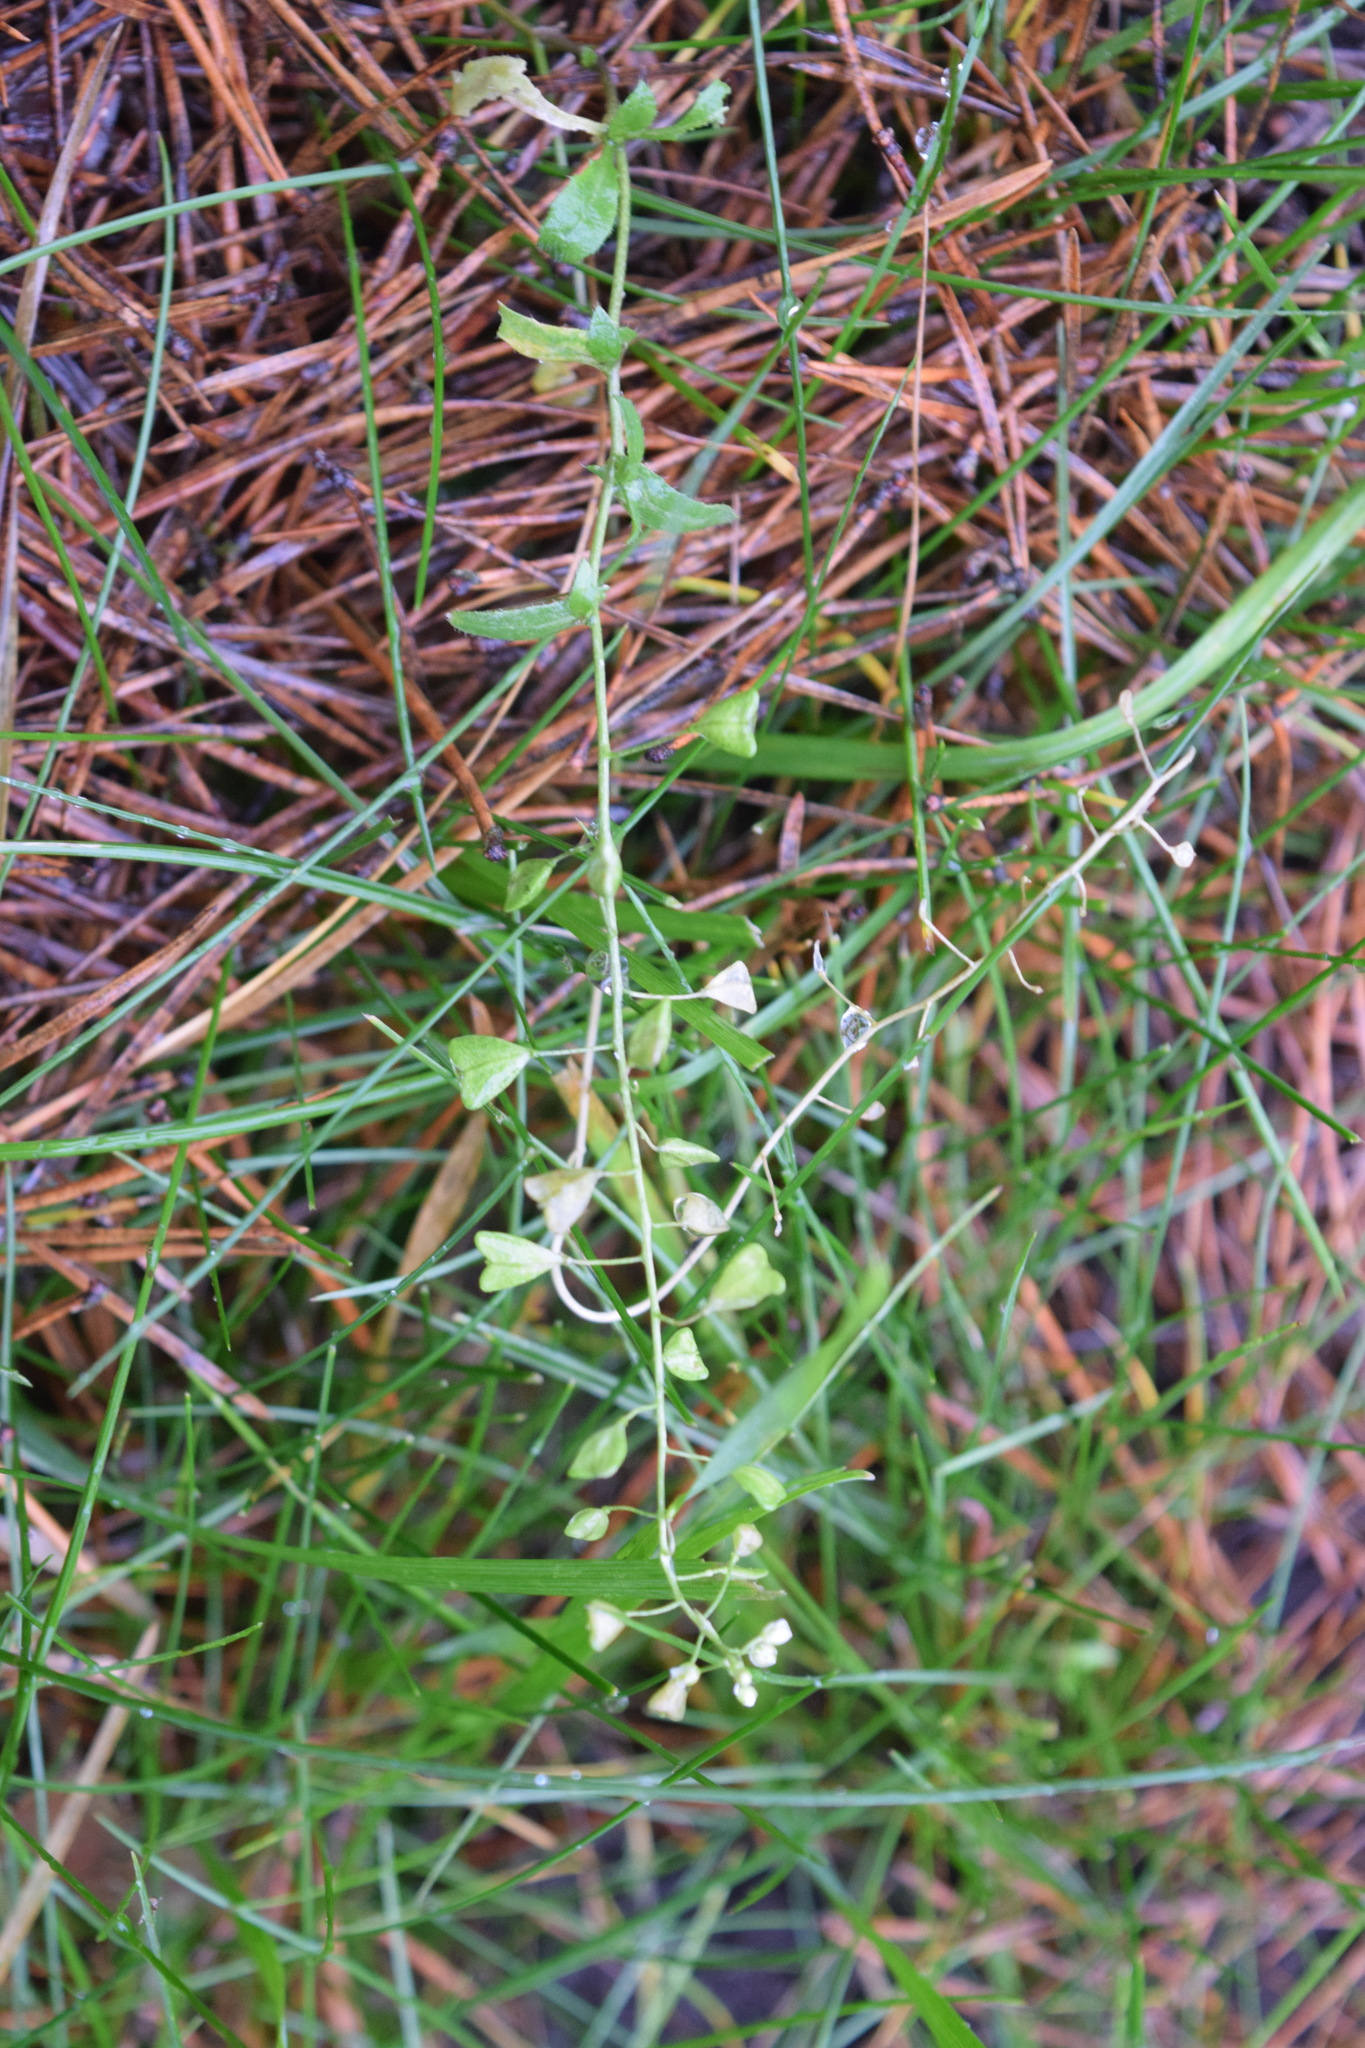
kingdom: Plantae
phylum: Tracheophyta
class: Magnoliopsida
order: Brassicales
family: Brassicaceae
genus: Capsella
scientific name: Capsella bursa-pastoris
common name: Shepherd's purse
